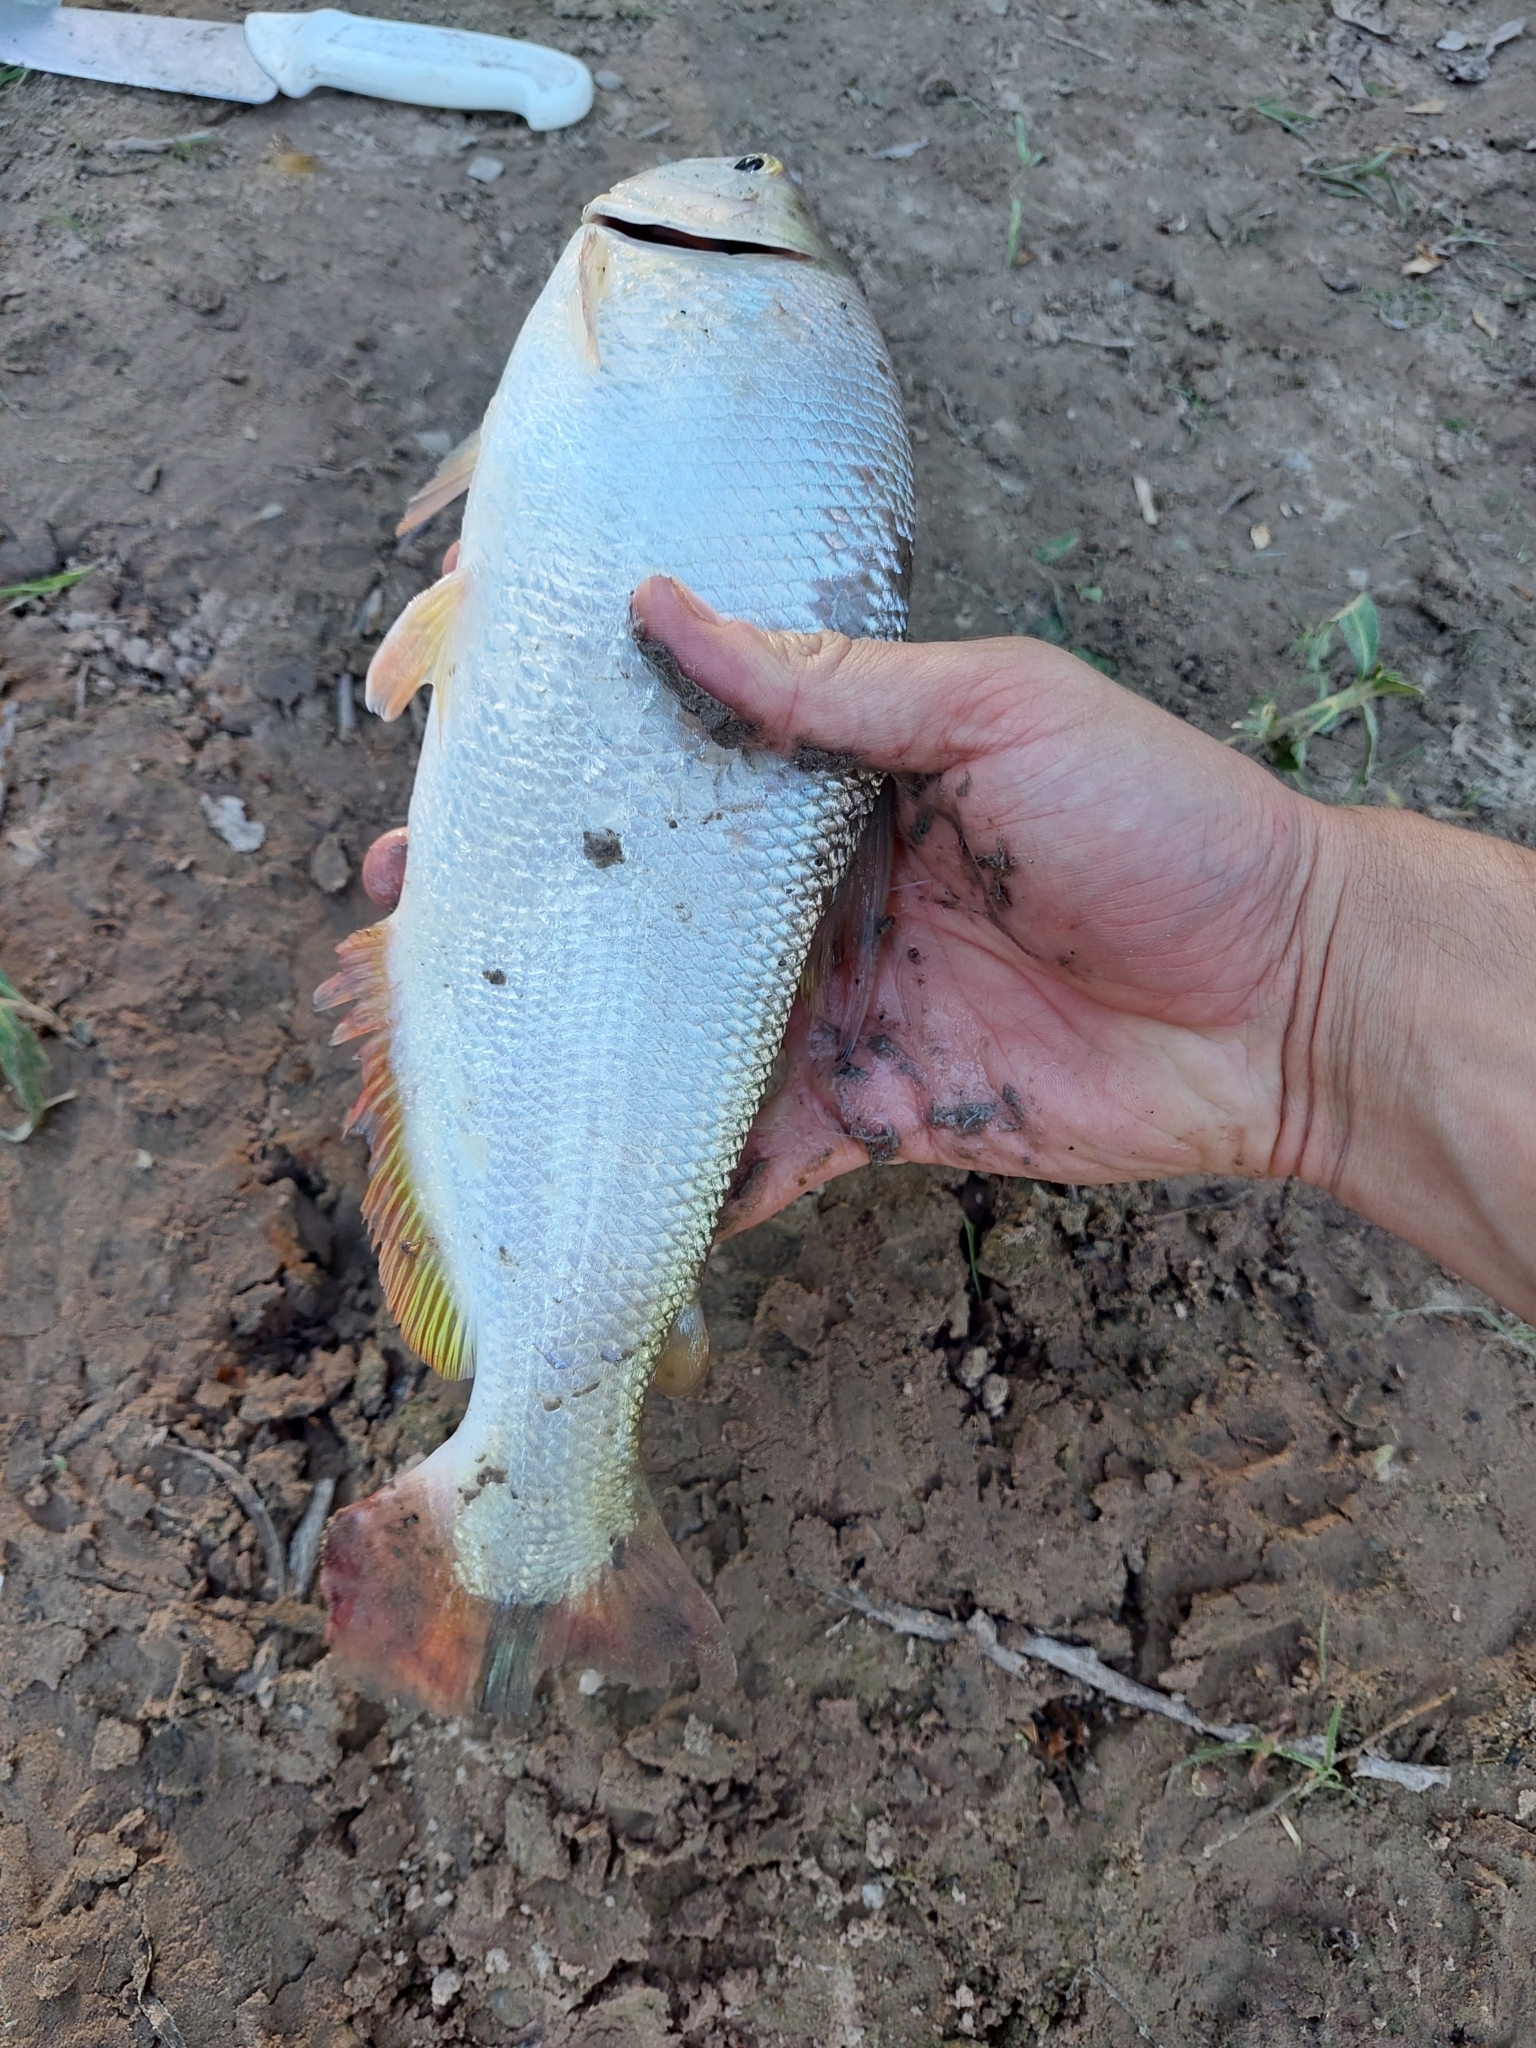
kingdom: Animalia
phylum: Chordata
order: Characiformes
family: Bryconidae
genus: Brycon
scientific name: Brycon orbignyanus
